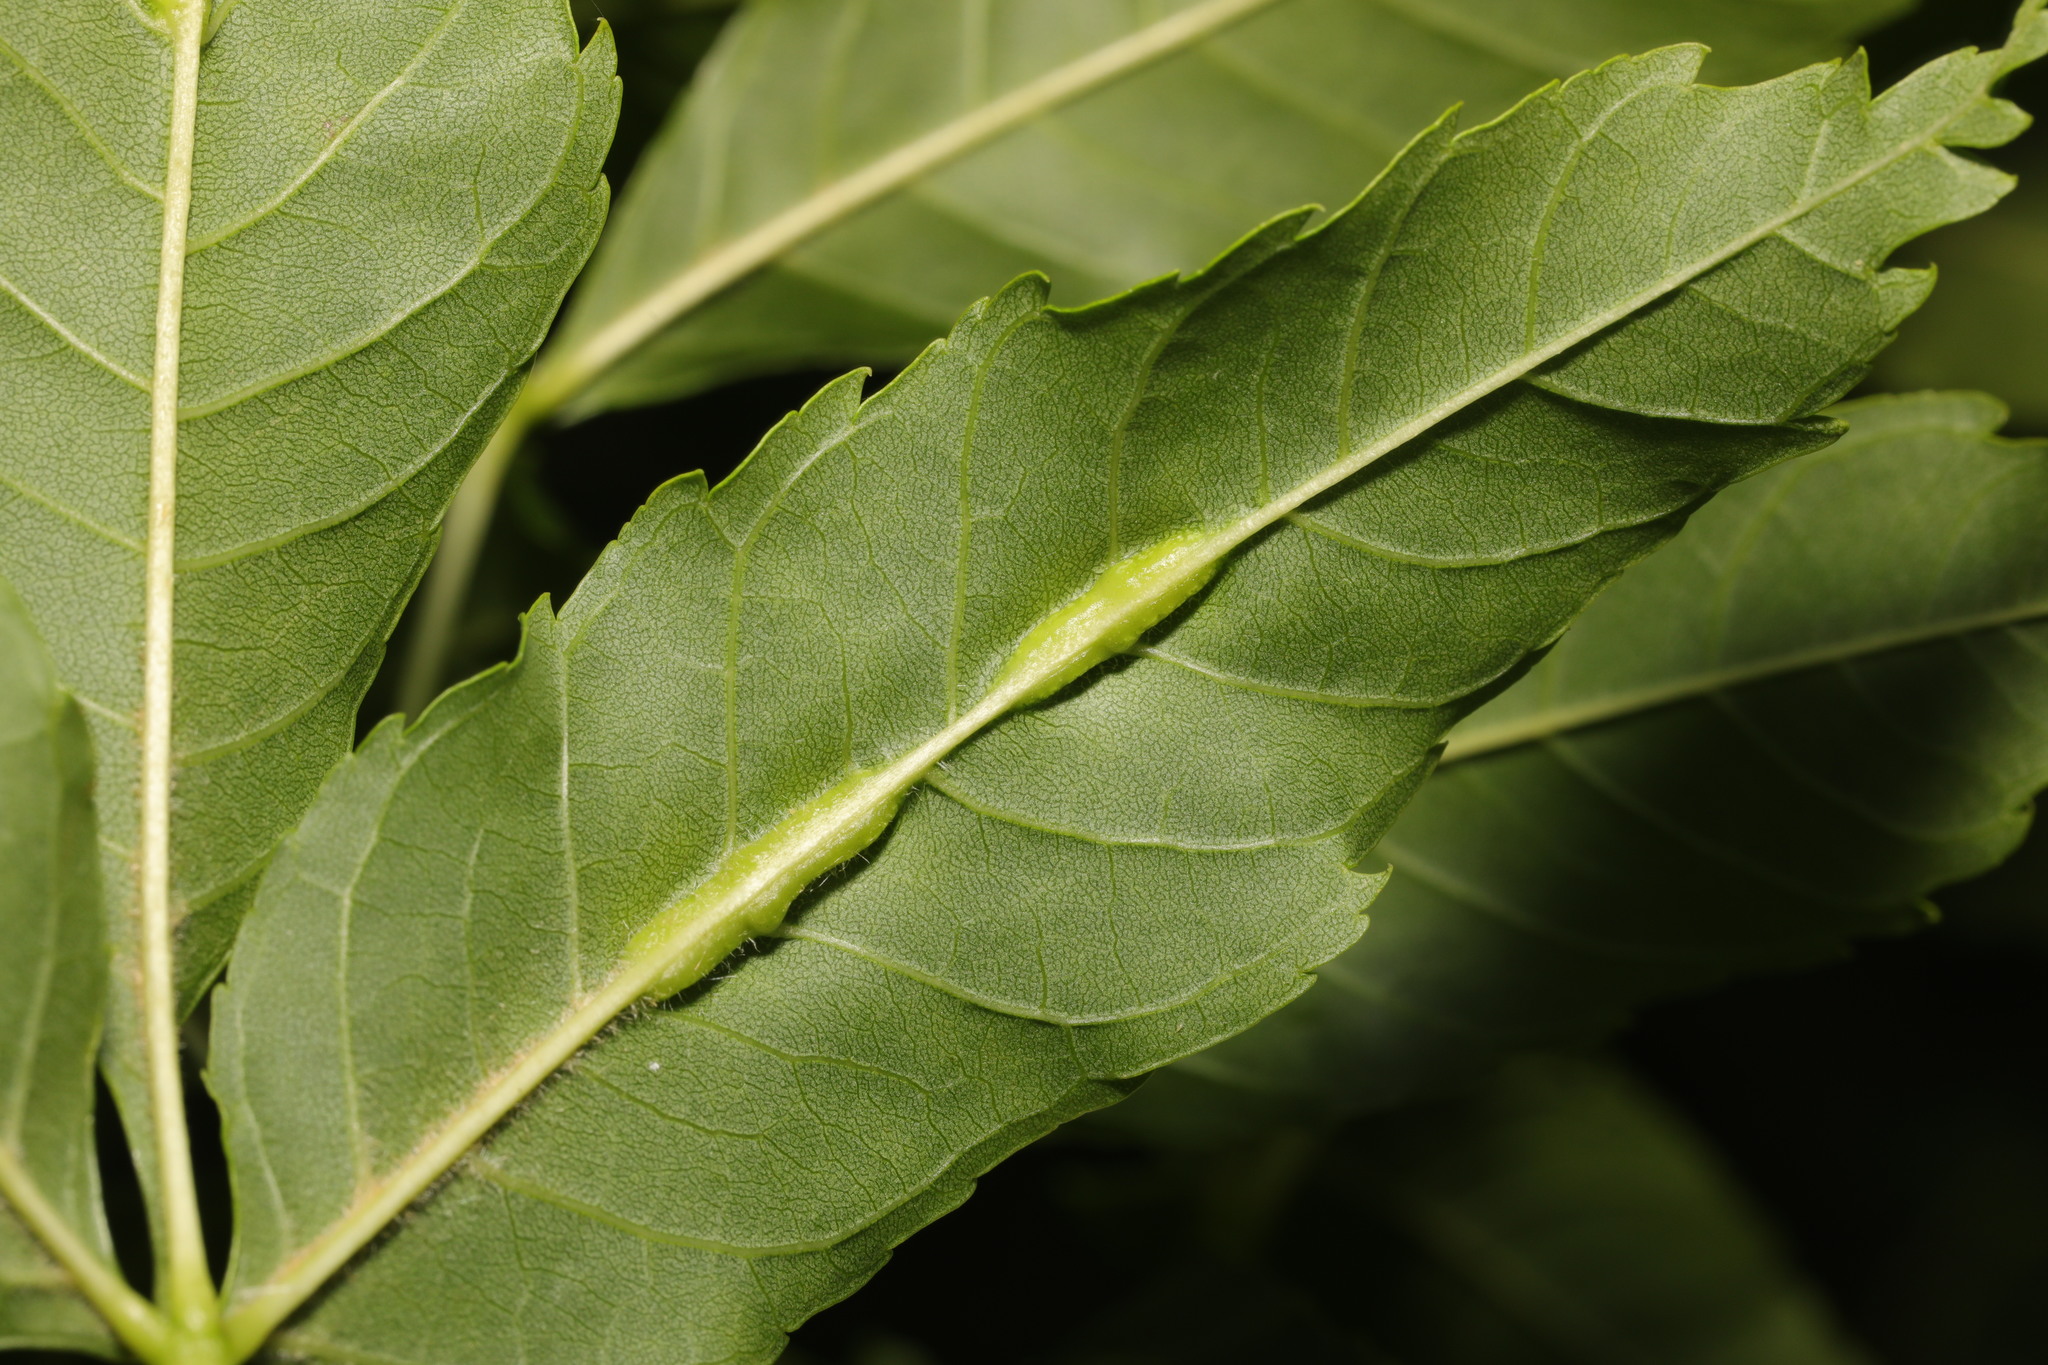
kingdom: Animalia
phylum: Arthropoda
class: Insecta
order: Diptera
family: Cecidomyiidae
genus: Dasineura
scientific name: Dasineura fraxini
